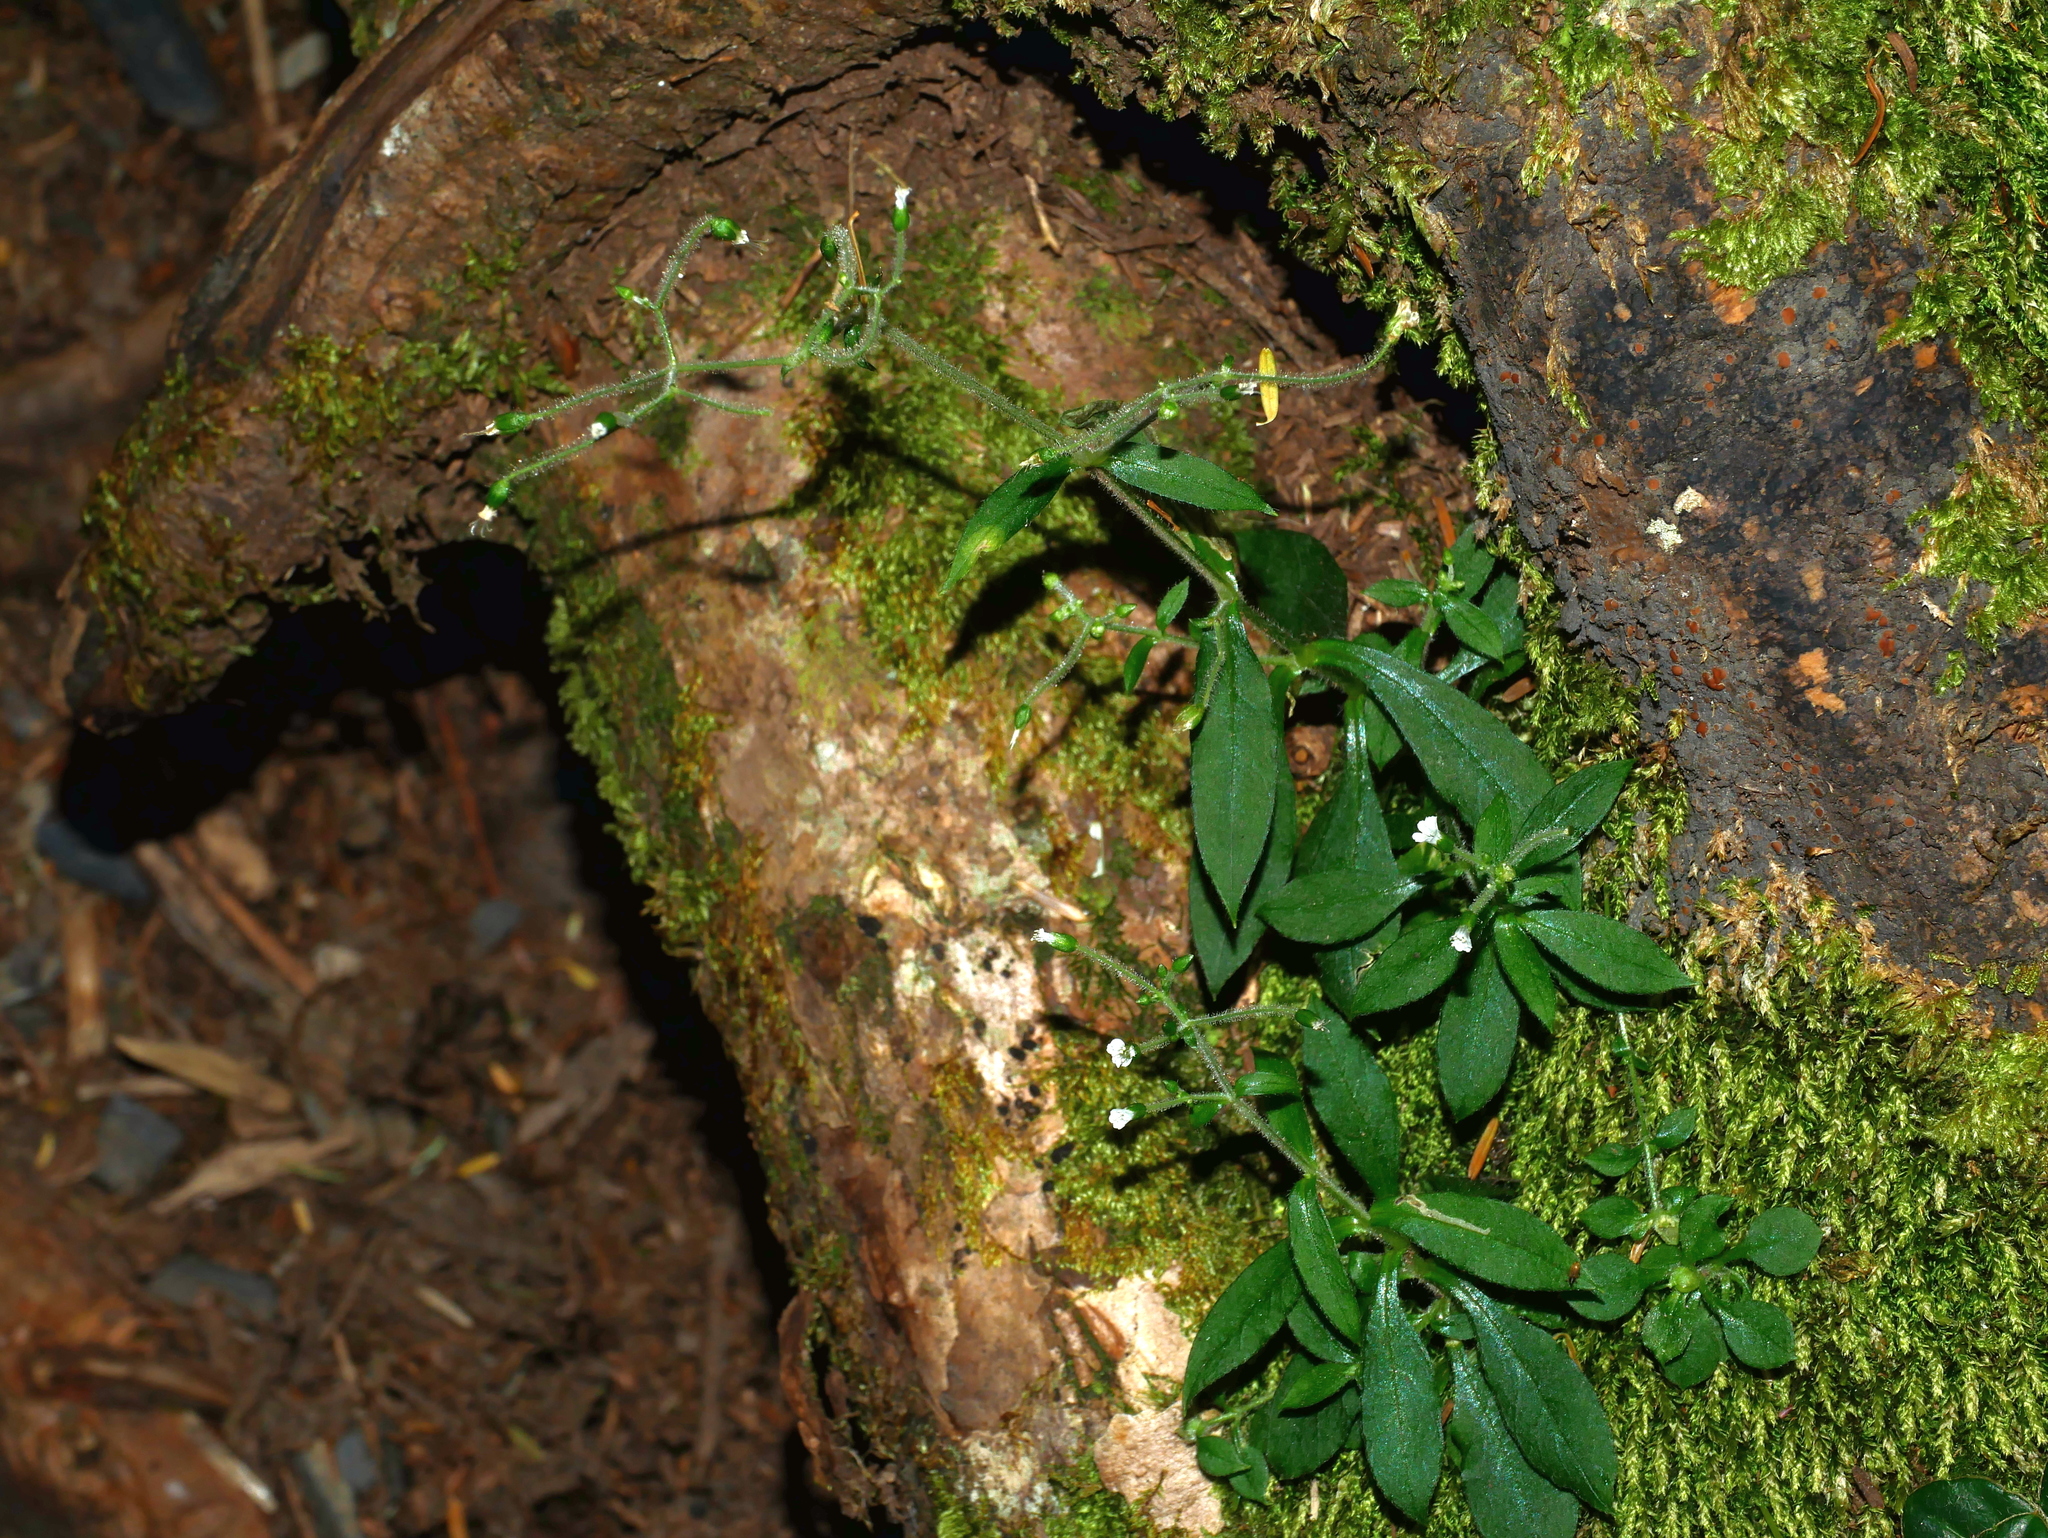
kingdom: Plantae
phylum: Tracheophyta
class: Magnoliopsida
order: Caryophyllales
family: Caryophyllaceae
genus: Cerastium
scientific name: Cerastium takasagomontanum
